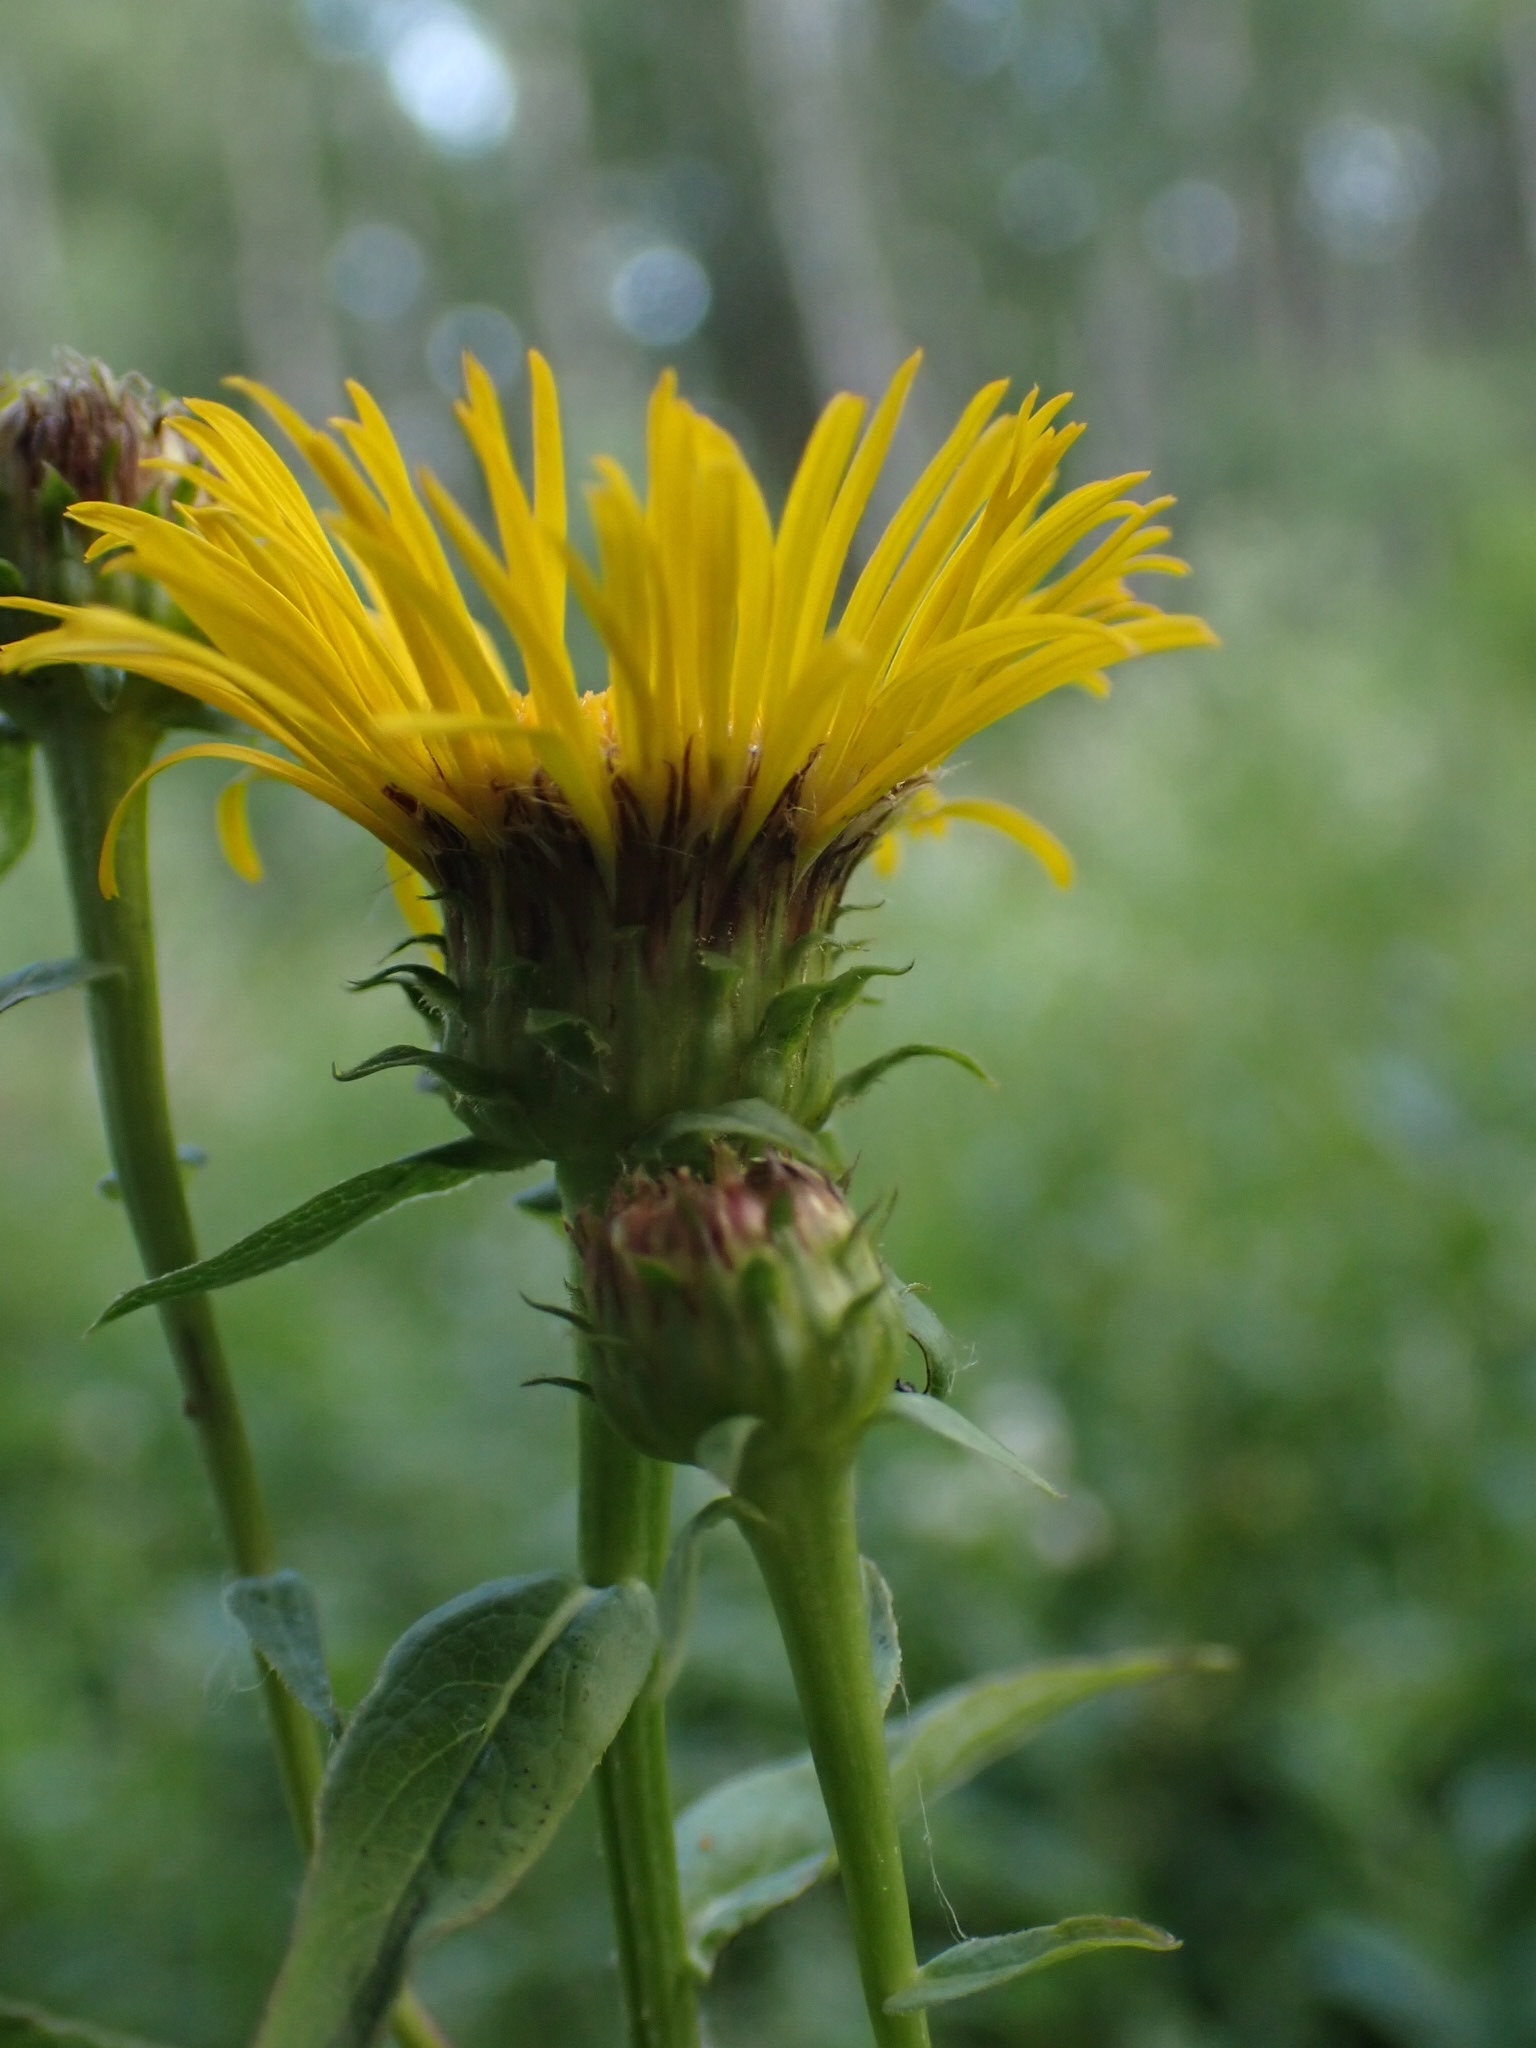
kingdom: Plantae
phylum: Tracheophyta
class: Magnoliopsida
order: Asterales
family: Asteraceae
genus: Pentanema
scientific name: Pentanema salicinum
